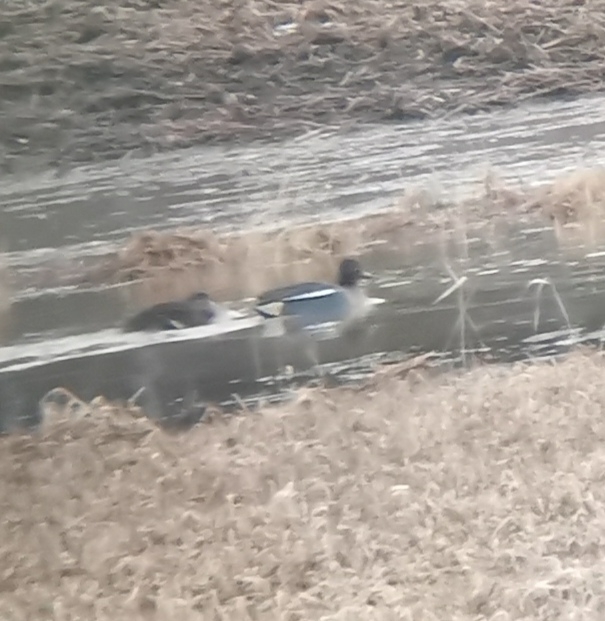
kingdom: Animalia
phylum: Chordata
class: Aves
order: Anseriformes
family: Anatidae
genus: Anas
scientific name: Anas crecca
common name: Eurasian teal
